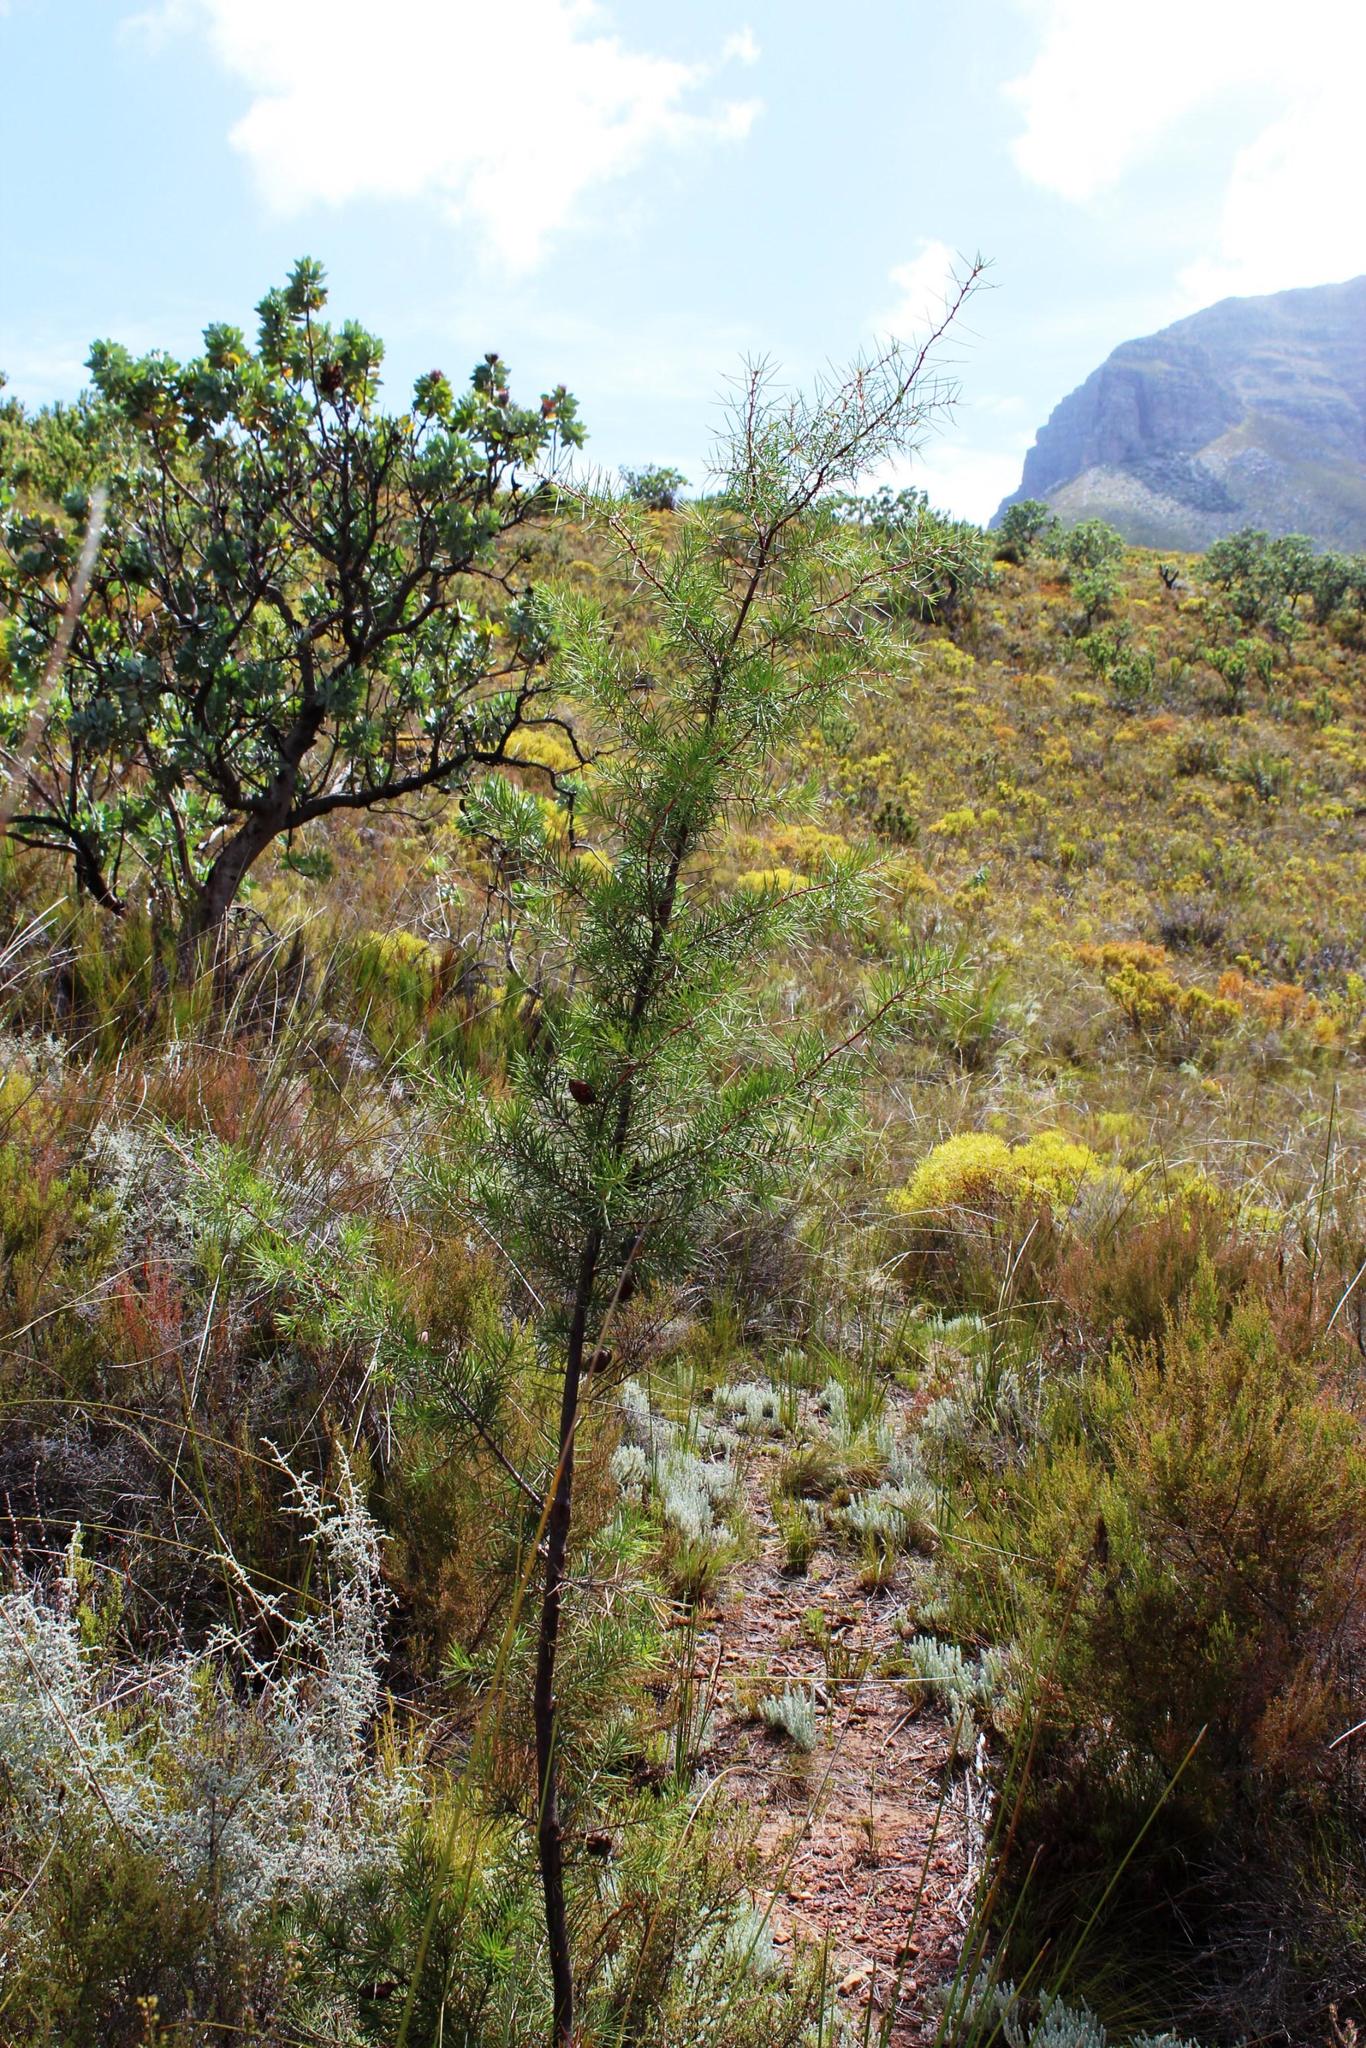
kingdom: Plantae
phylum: Tracheophyta
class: Magnoliopsida
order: Proteales
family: Proteaceae
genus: Hakea
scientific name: Hakea sericea
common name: Needle bush
